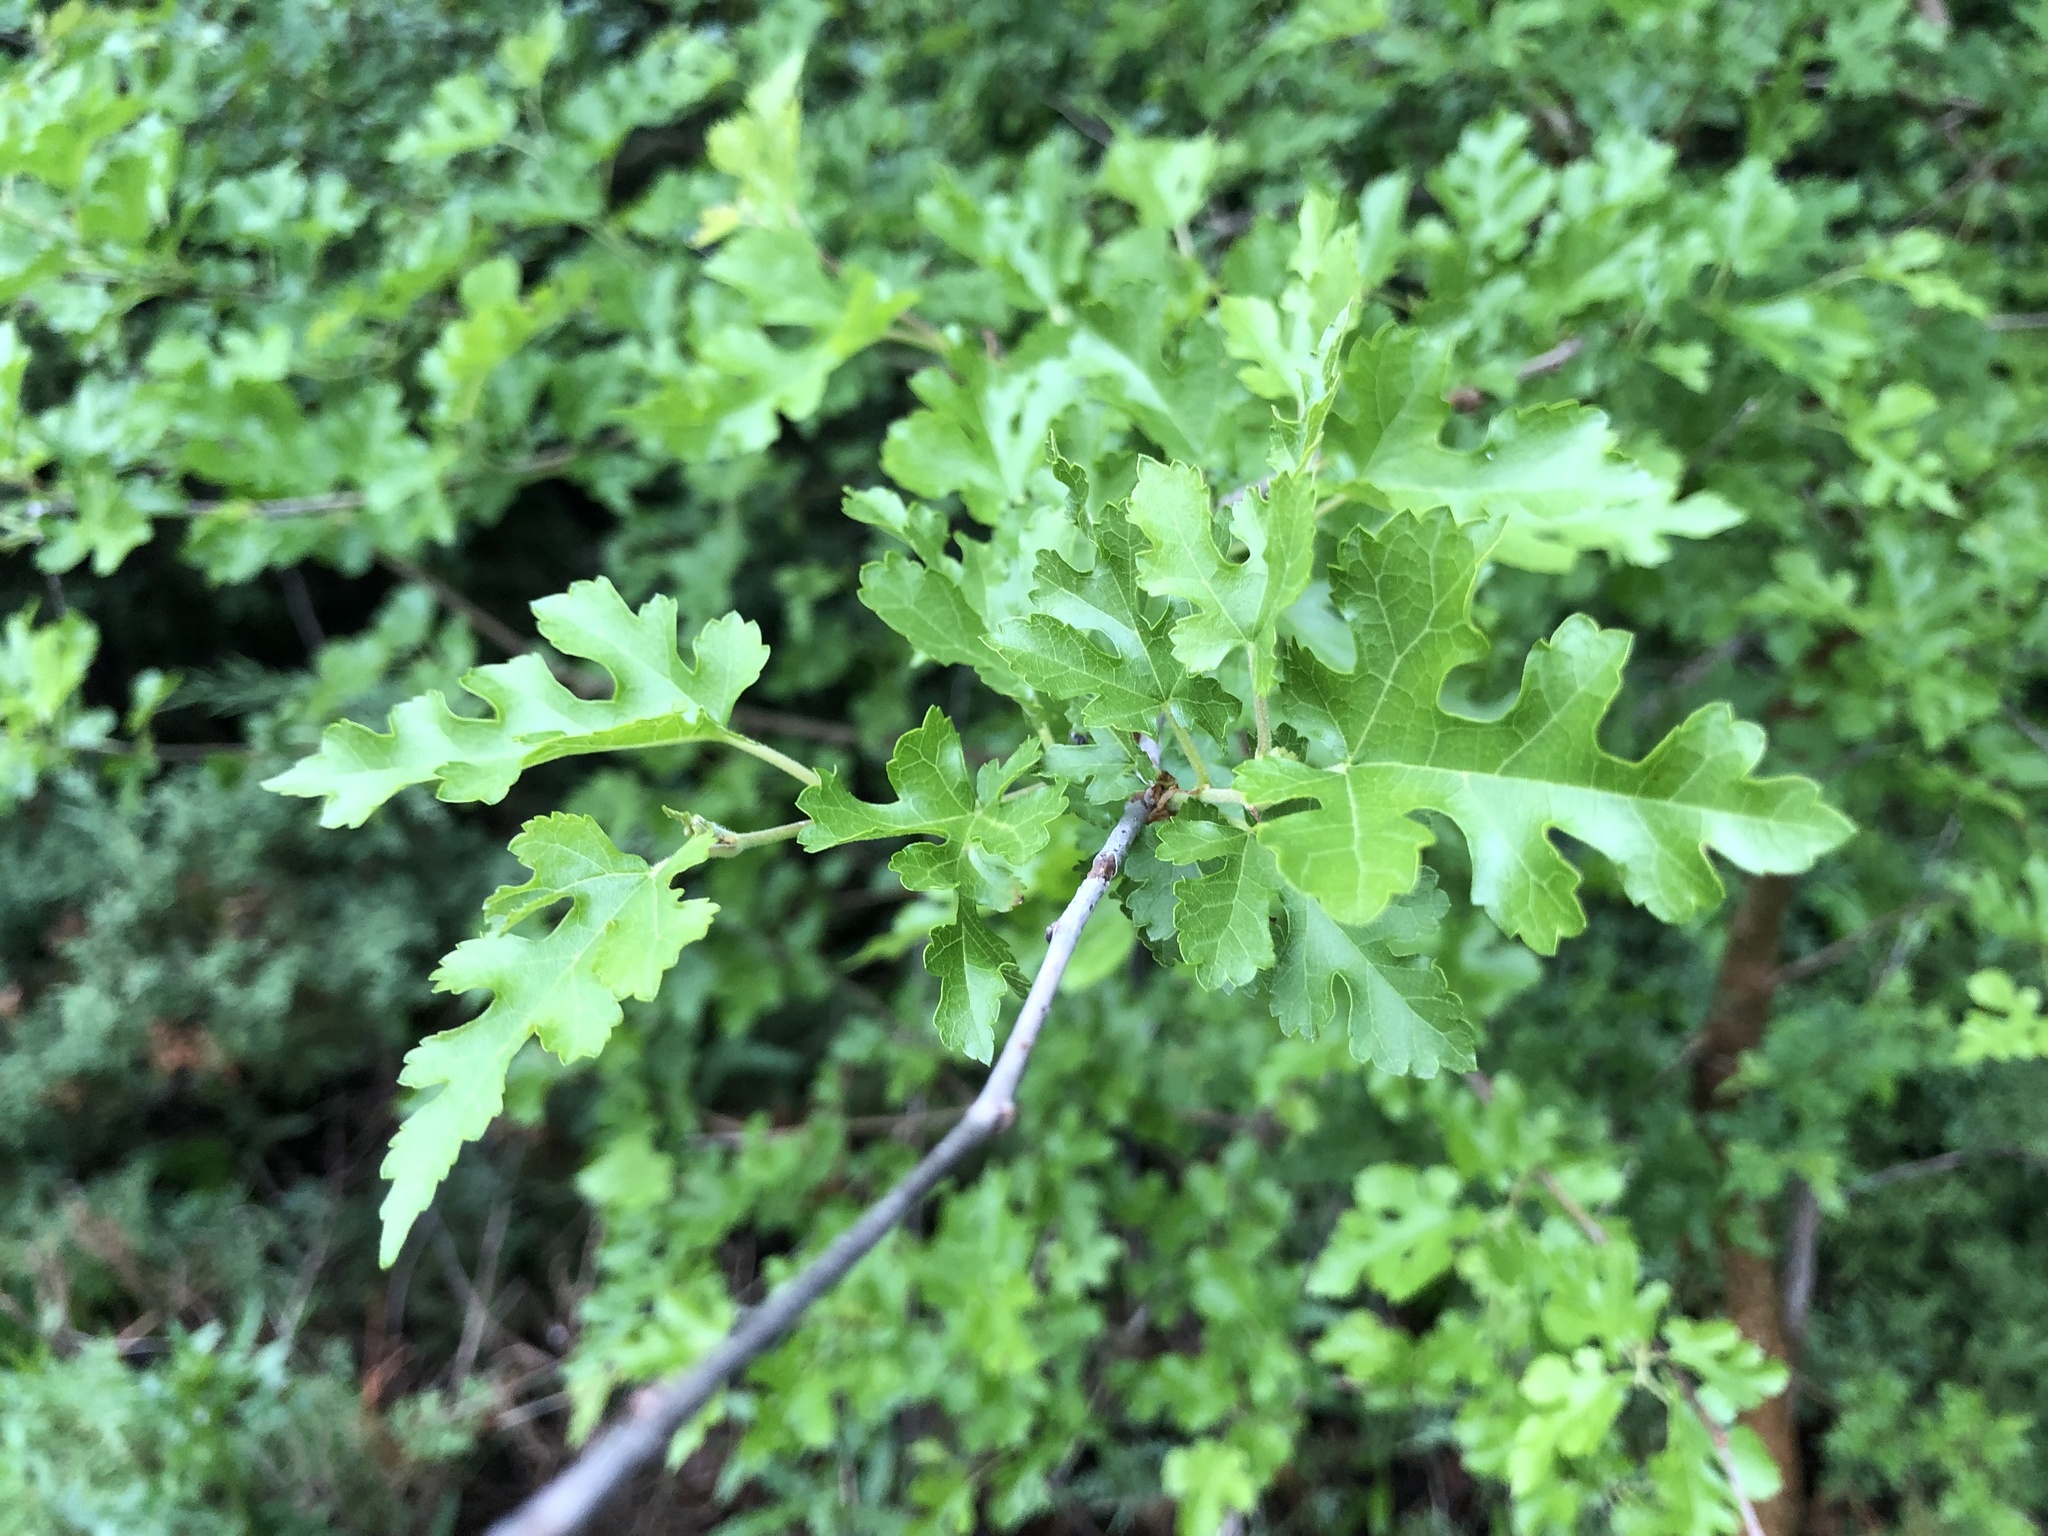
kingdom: Plantae
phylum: Tracheophyta
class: Magnoliopsida
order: Rosales
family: Moraceae
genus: Morus
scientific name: Morus alba
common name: White mulberry
